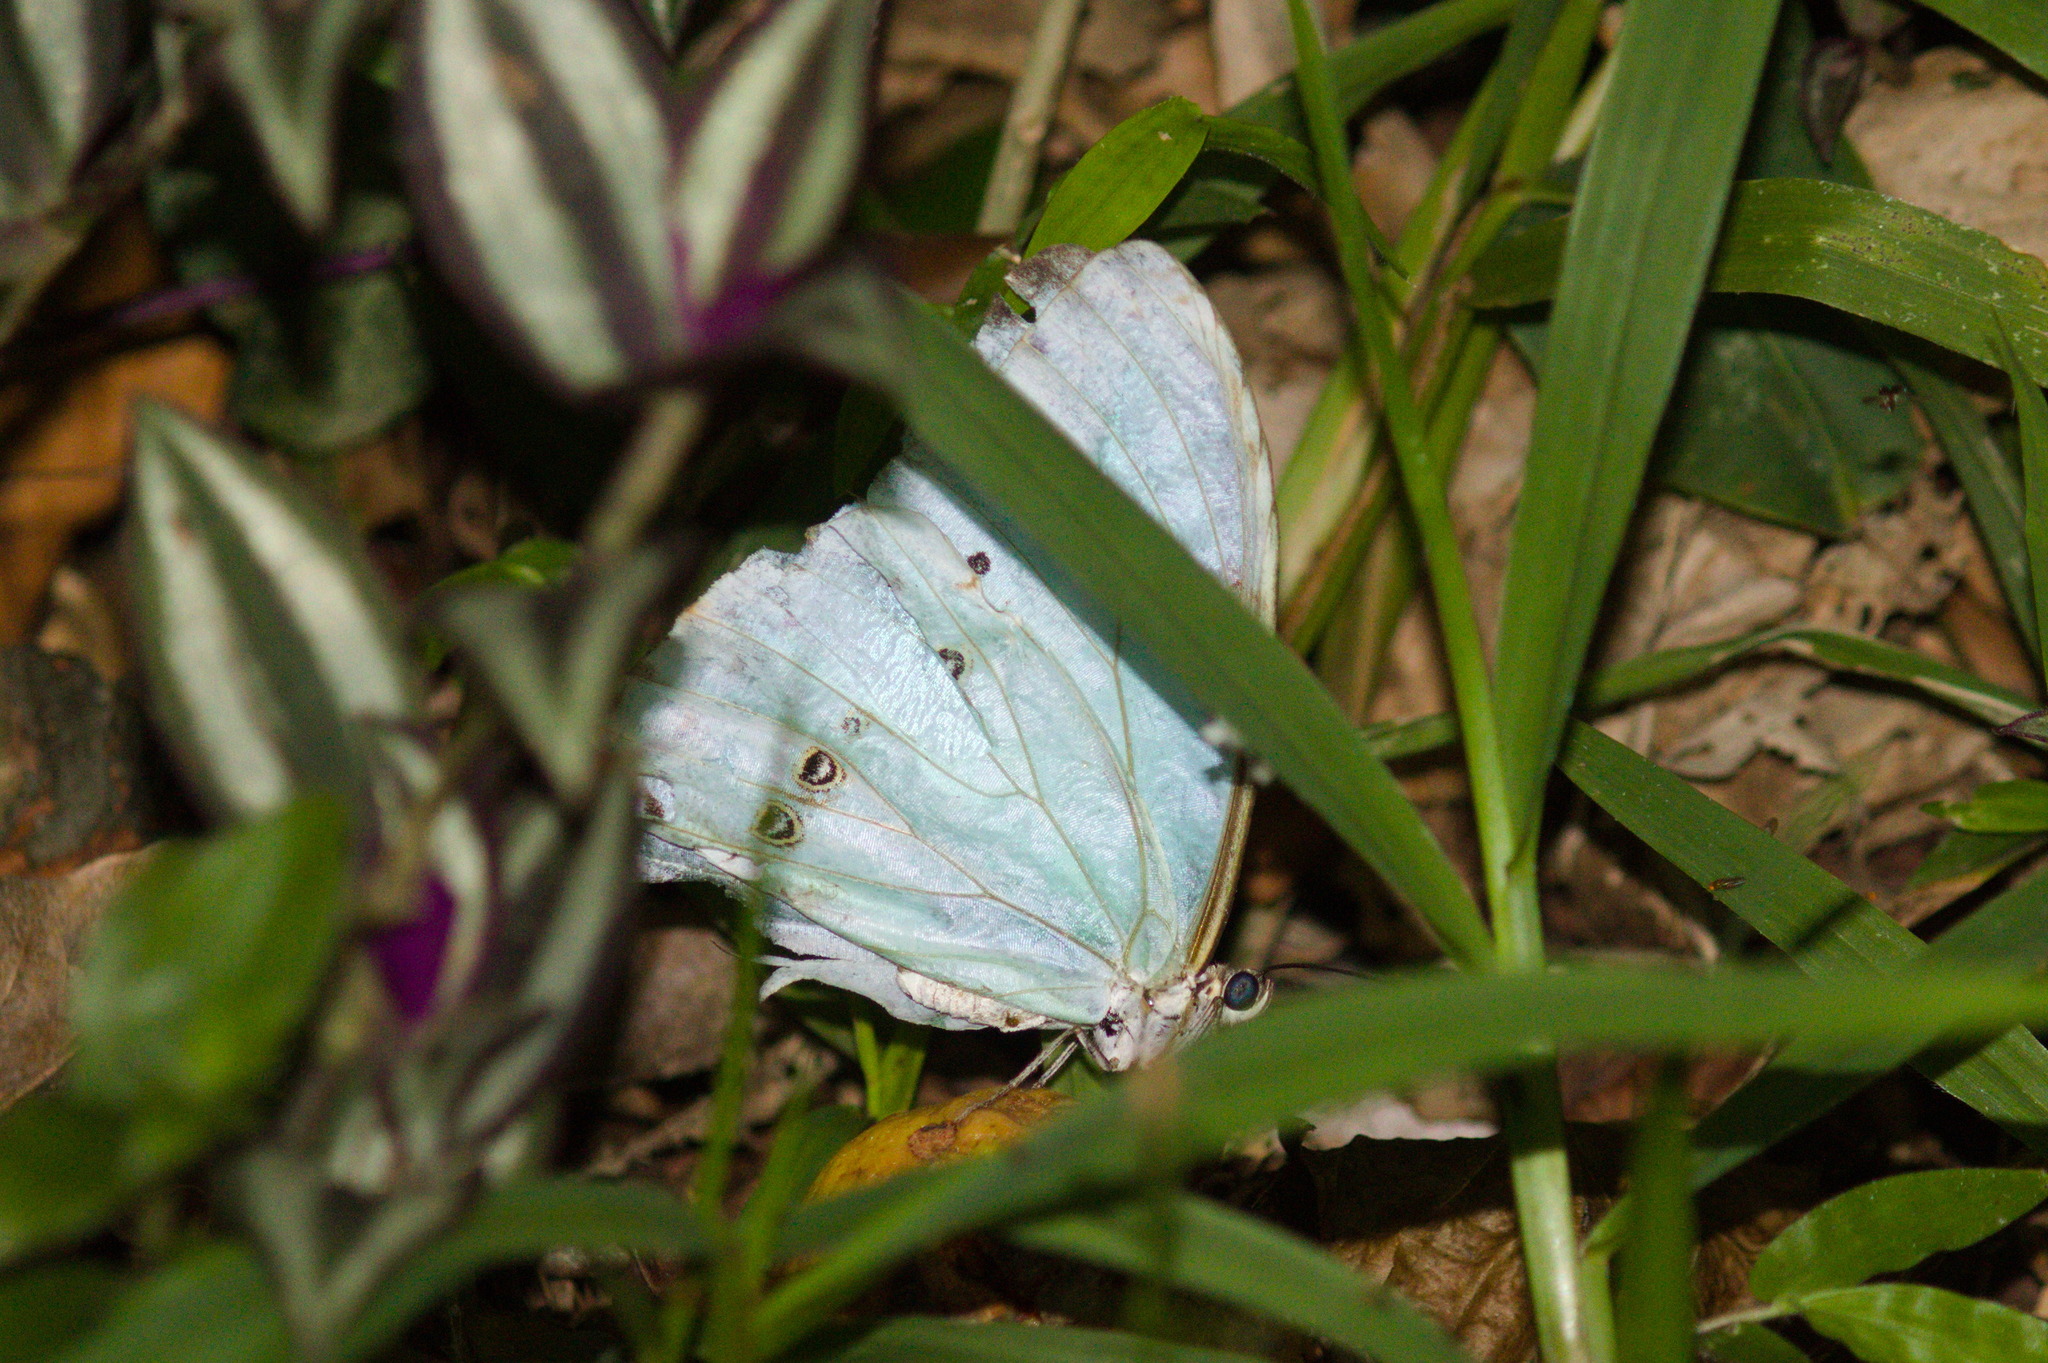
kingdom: Animalia
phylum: Arthropoda
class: Insecta
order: Lepidoptera
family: Nymphalidae
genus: Morpho
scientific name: Morpho epistrophus
